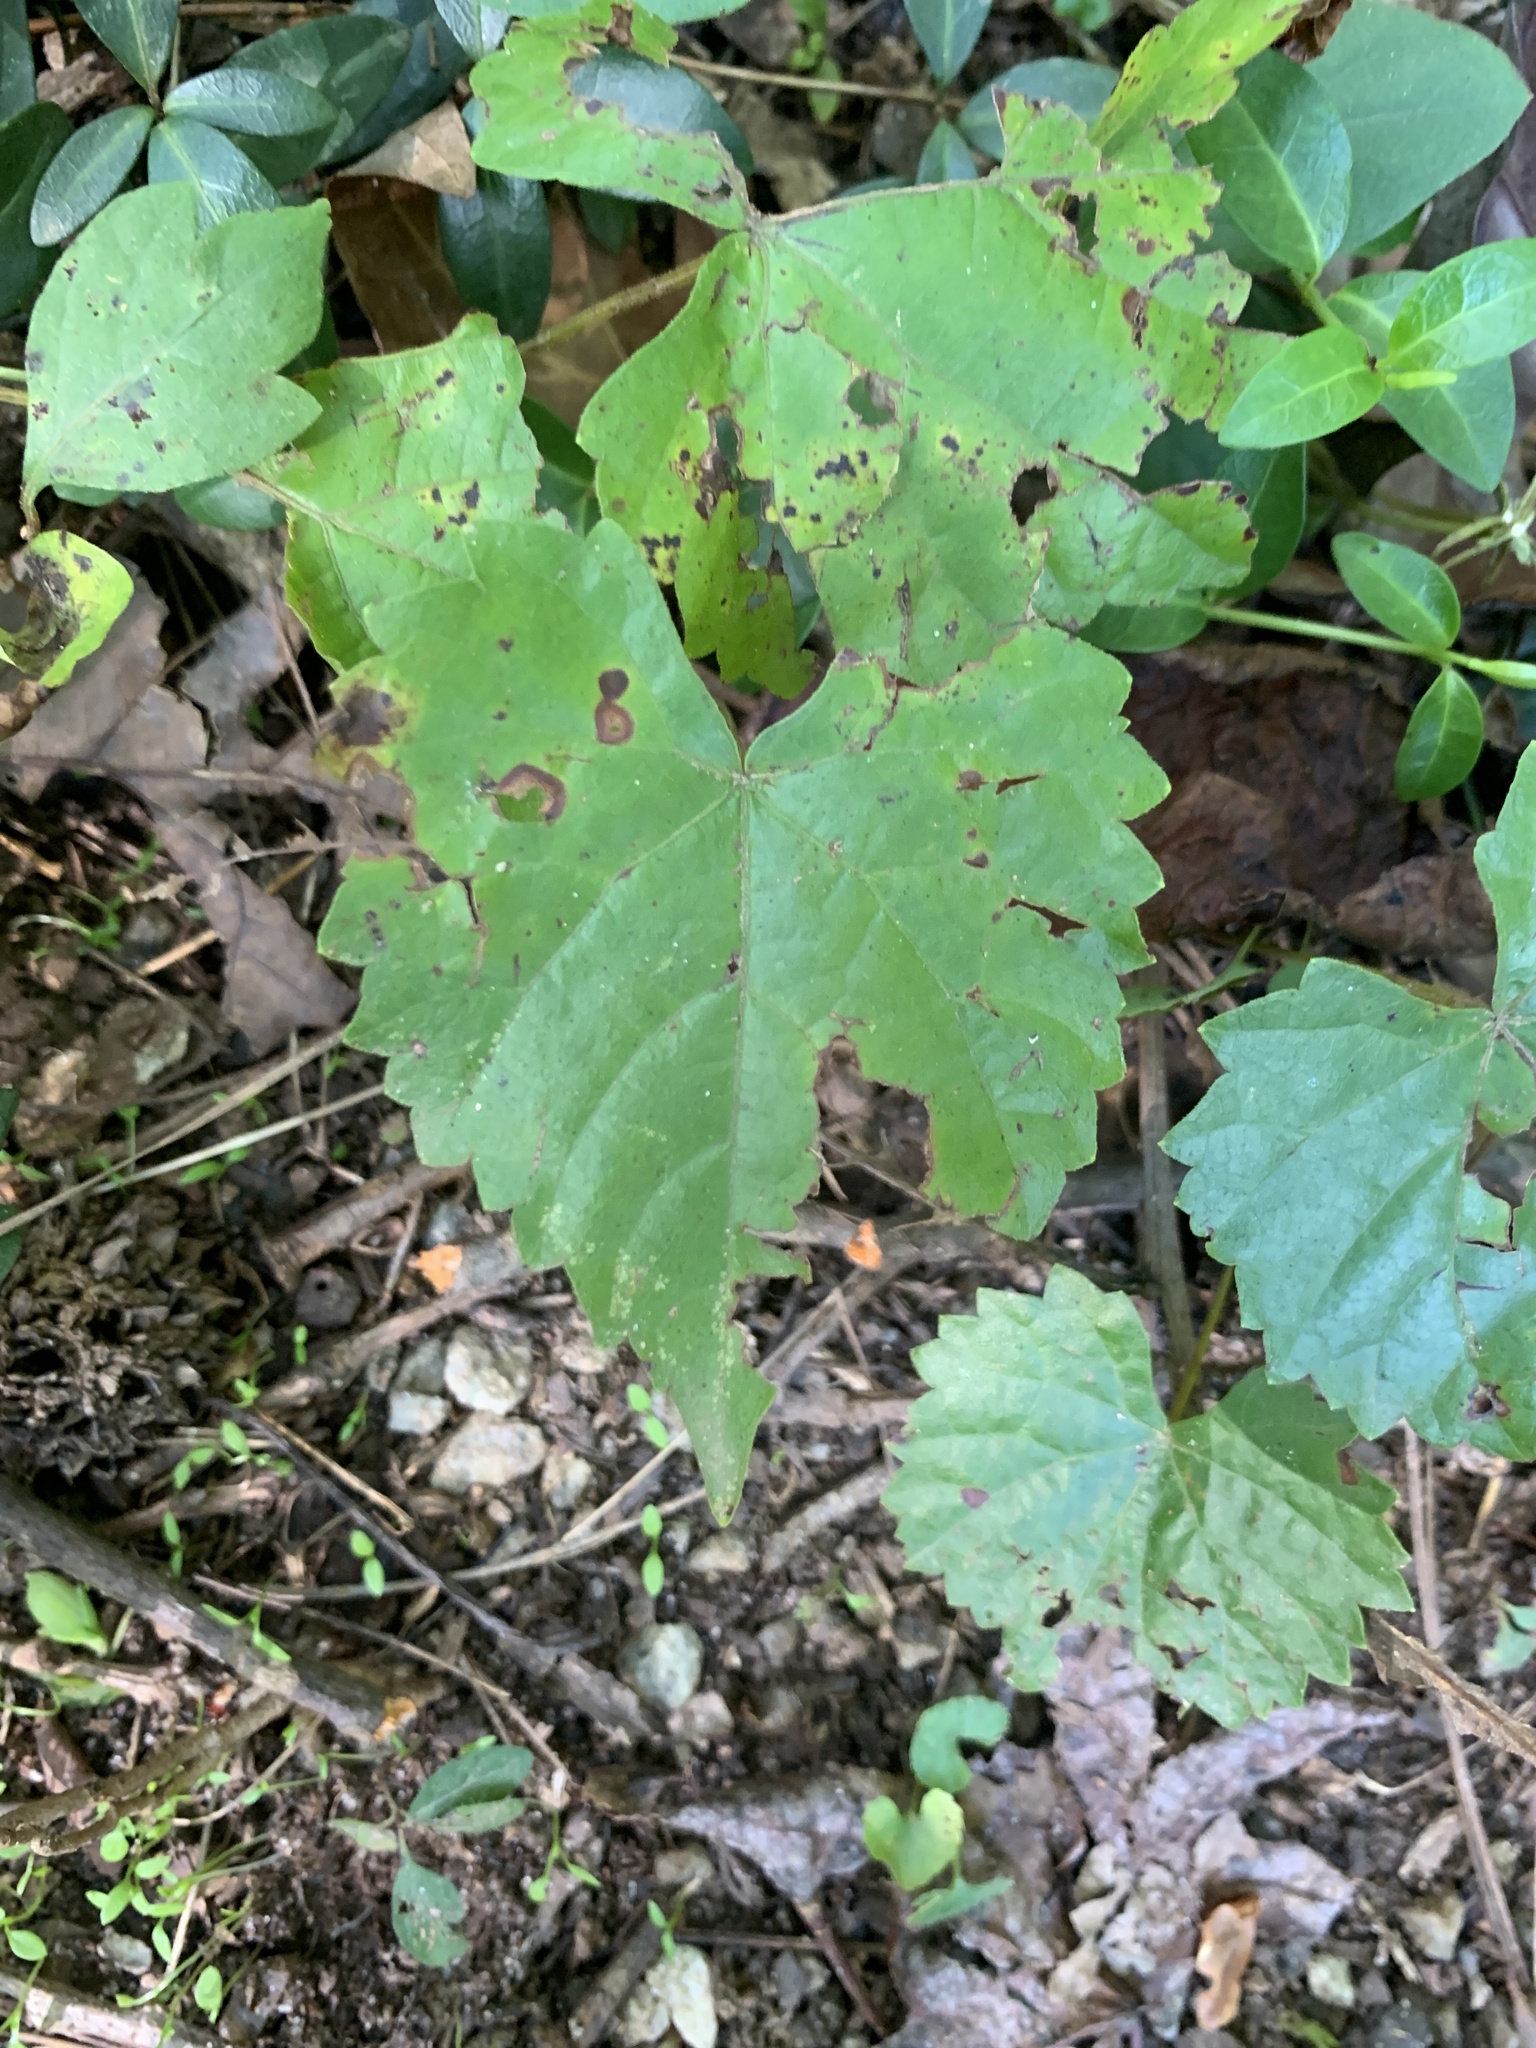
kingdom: Plantae
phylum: Tracheophyta
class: Magnoliopsida
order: Vitales
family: Vitaceae
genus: Vitis
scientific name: Vitis vulpina
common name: Frost grape
